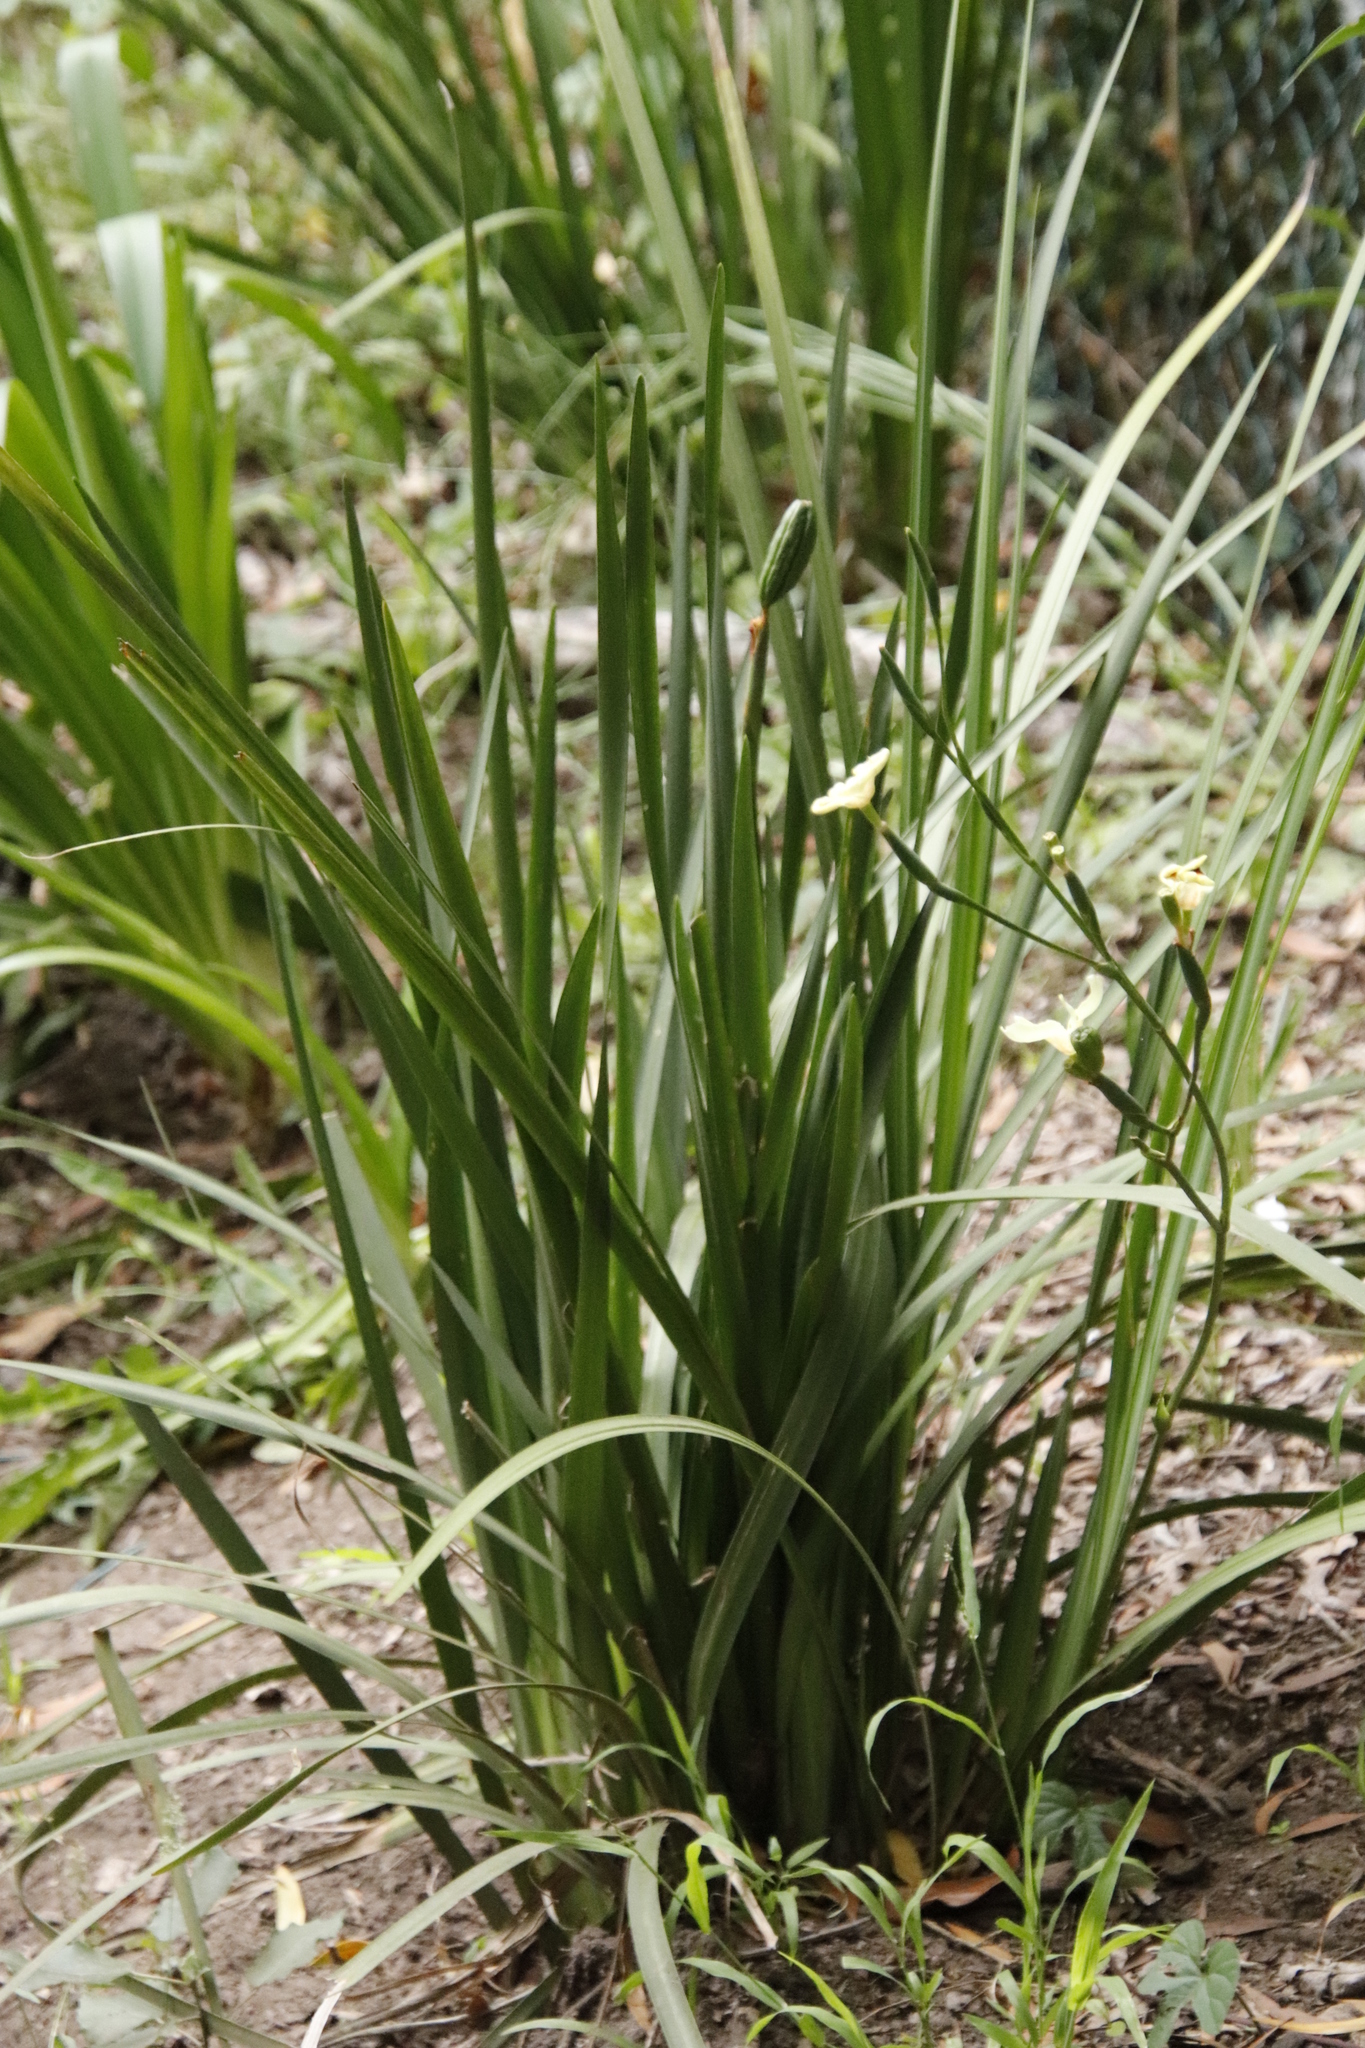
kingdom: Plantae
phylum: Tracheophyta
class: Liliopsida
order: Asparagales
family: Iridaceae
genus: Dietes
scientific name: Dietes bicolor
